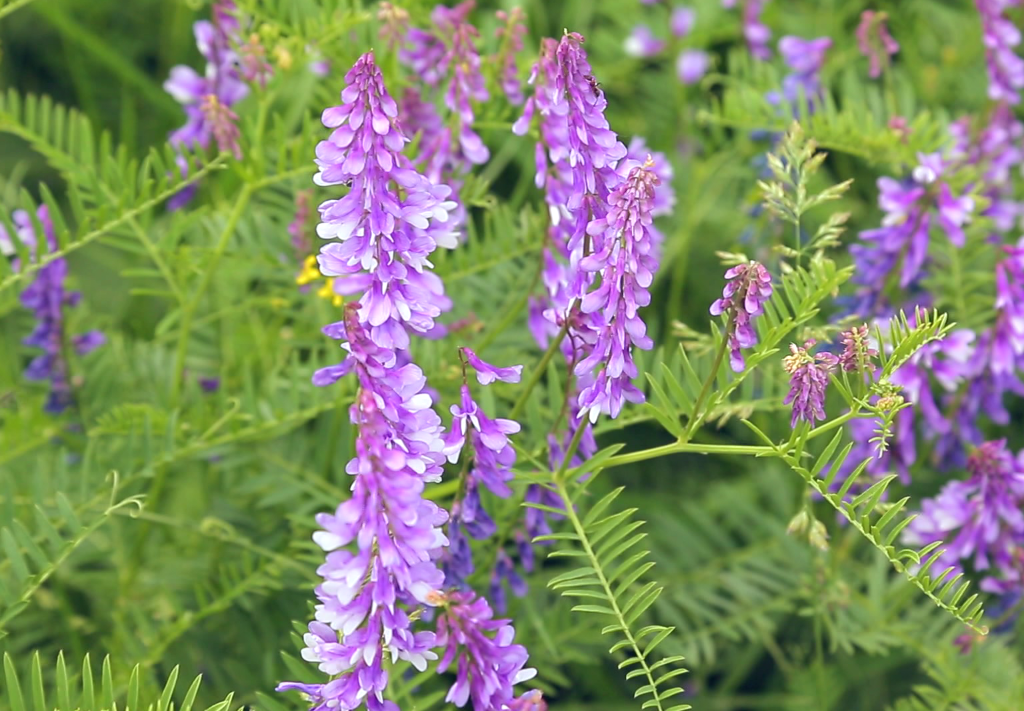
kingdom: Plantae
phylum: Tracheophyta
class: Magnoliopsida
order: Fabales
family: Fabaceae
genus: Vicia
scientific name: Vicia tenuifolia
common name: Fine-leaved vetch
